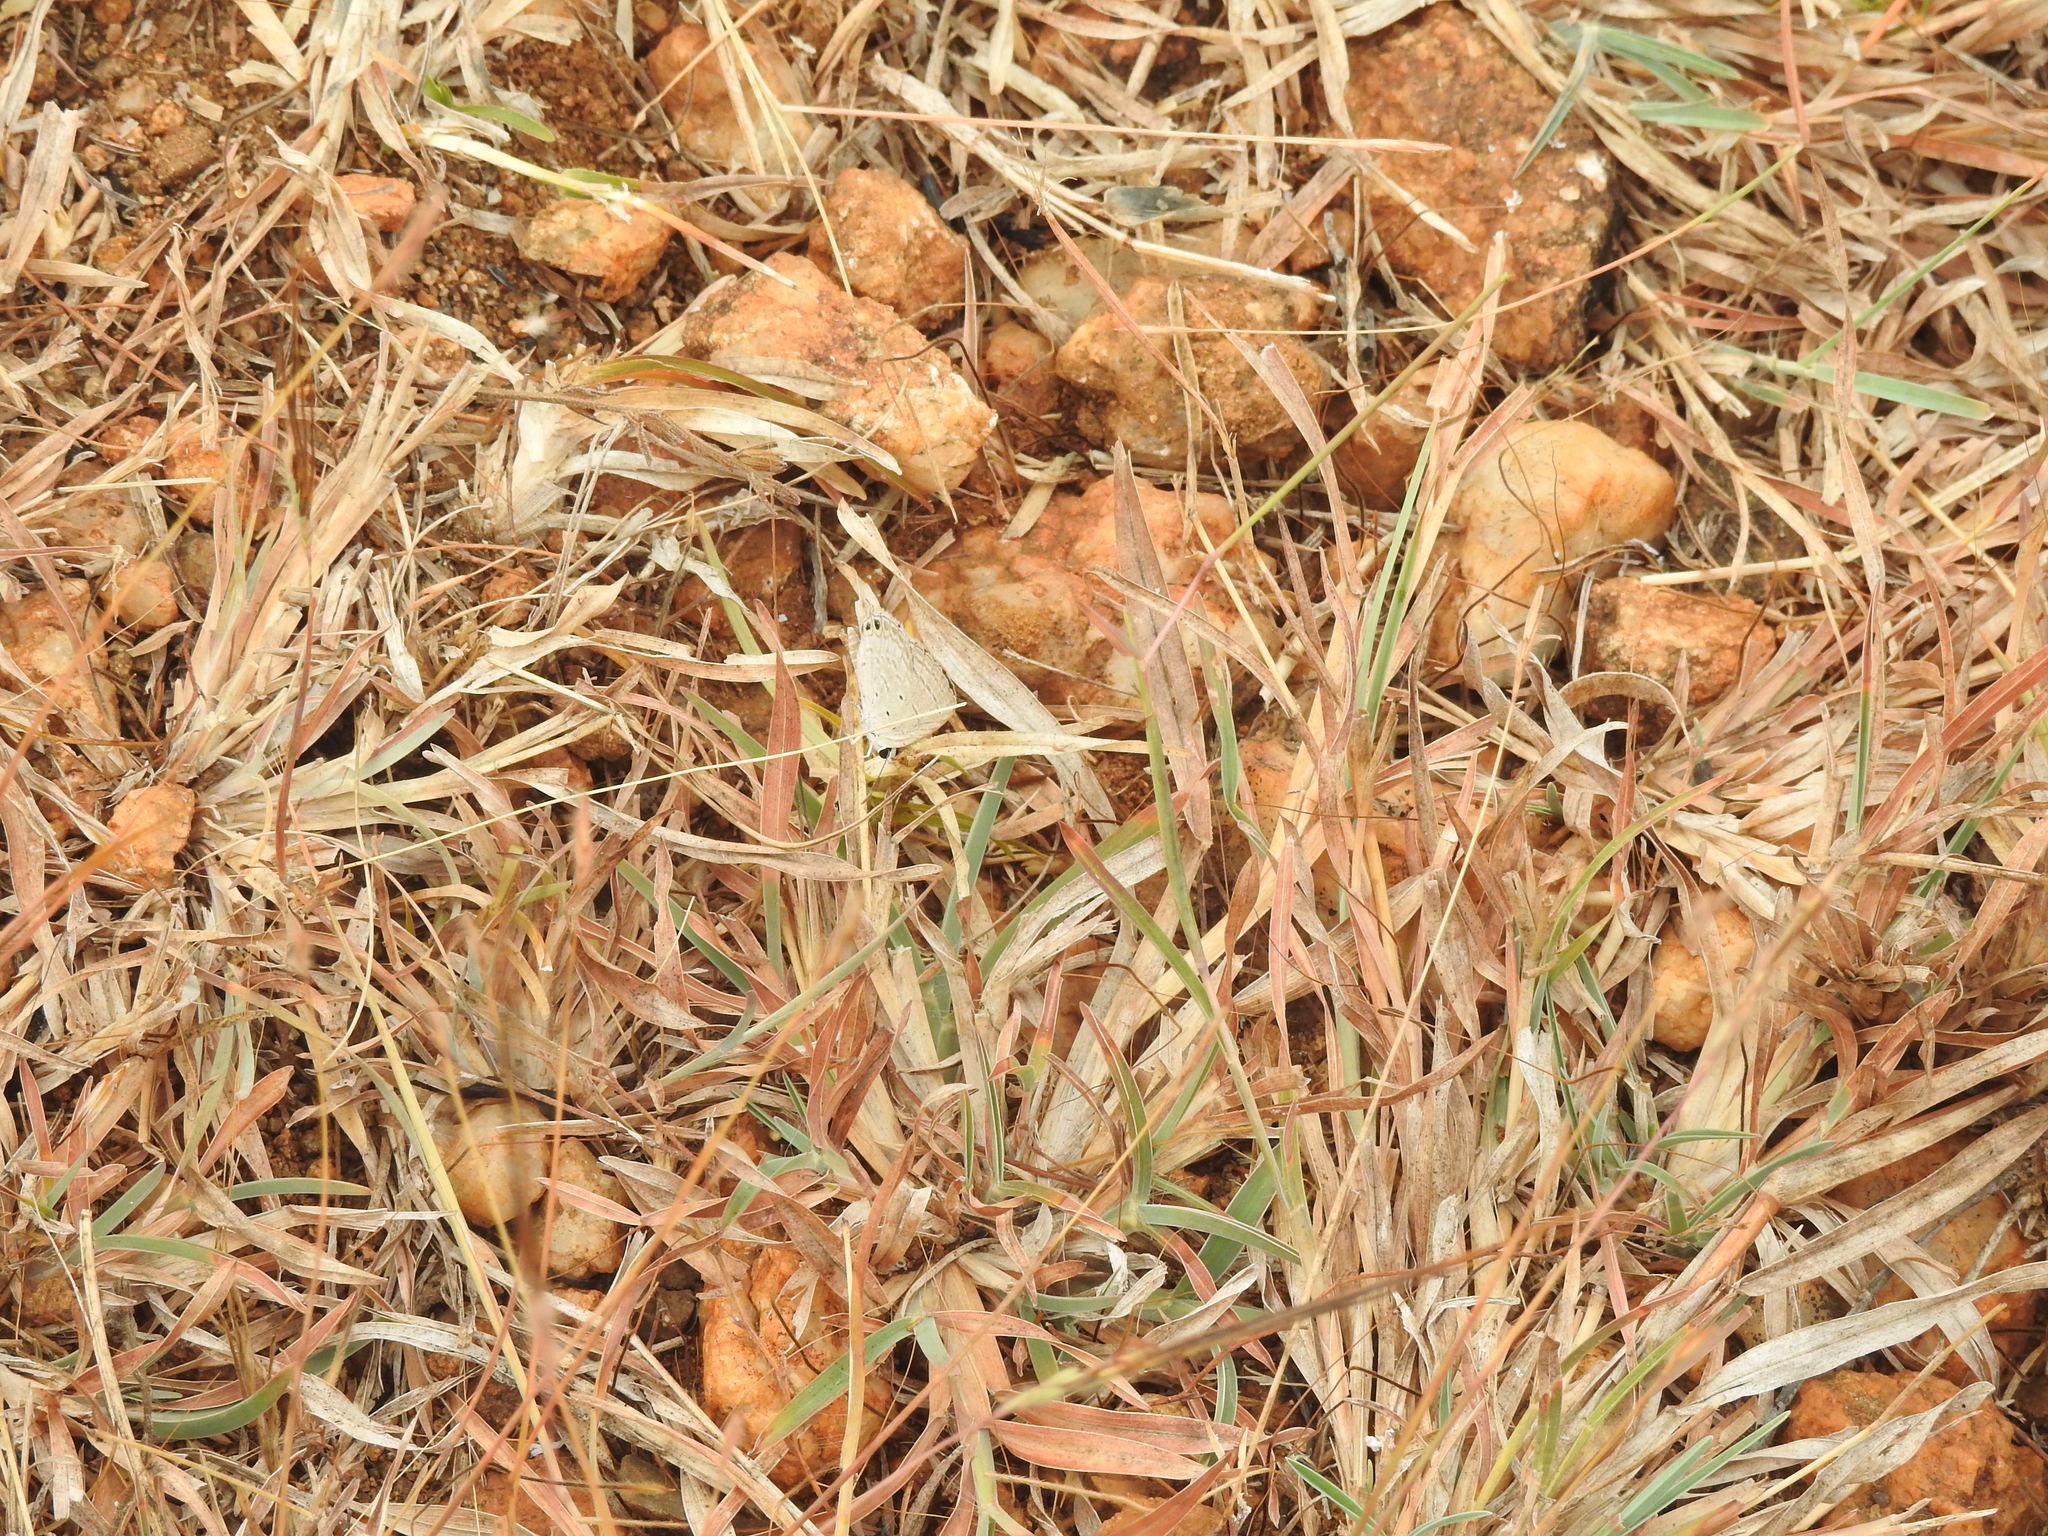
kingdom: Animalia
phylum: Arthropoda
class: Insecta
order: Lepidoptera
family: Lycaenidae
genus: Euchrysops
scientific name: Euchrysops cnejus
